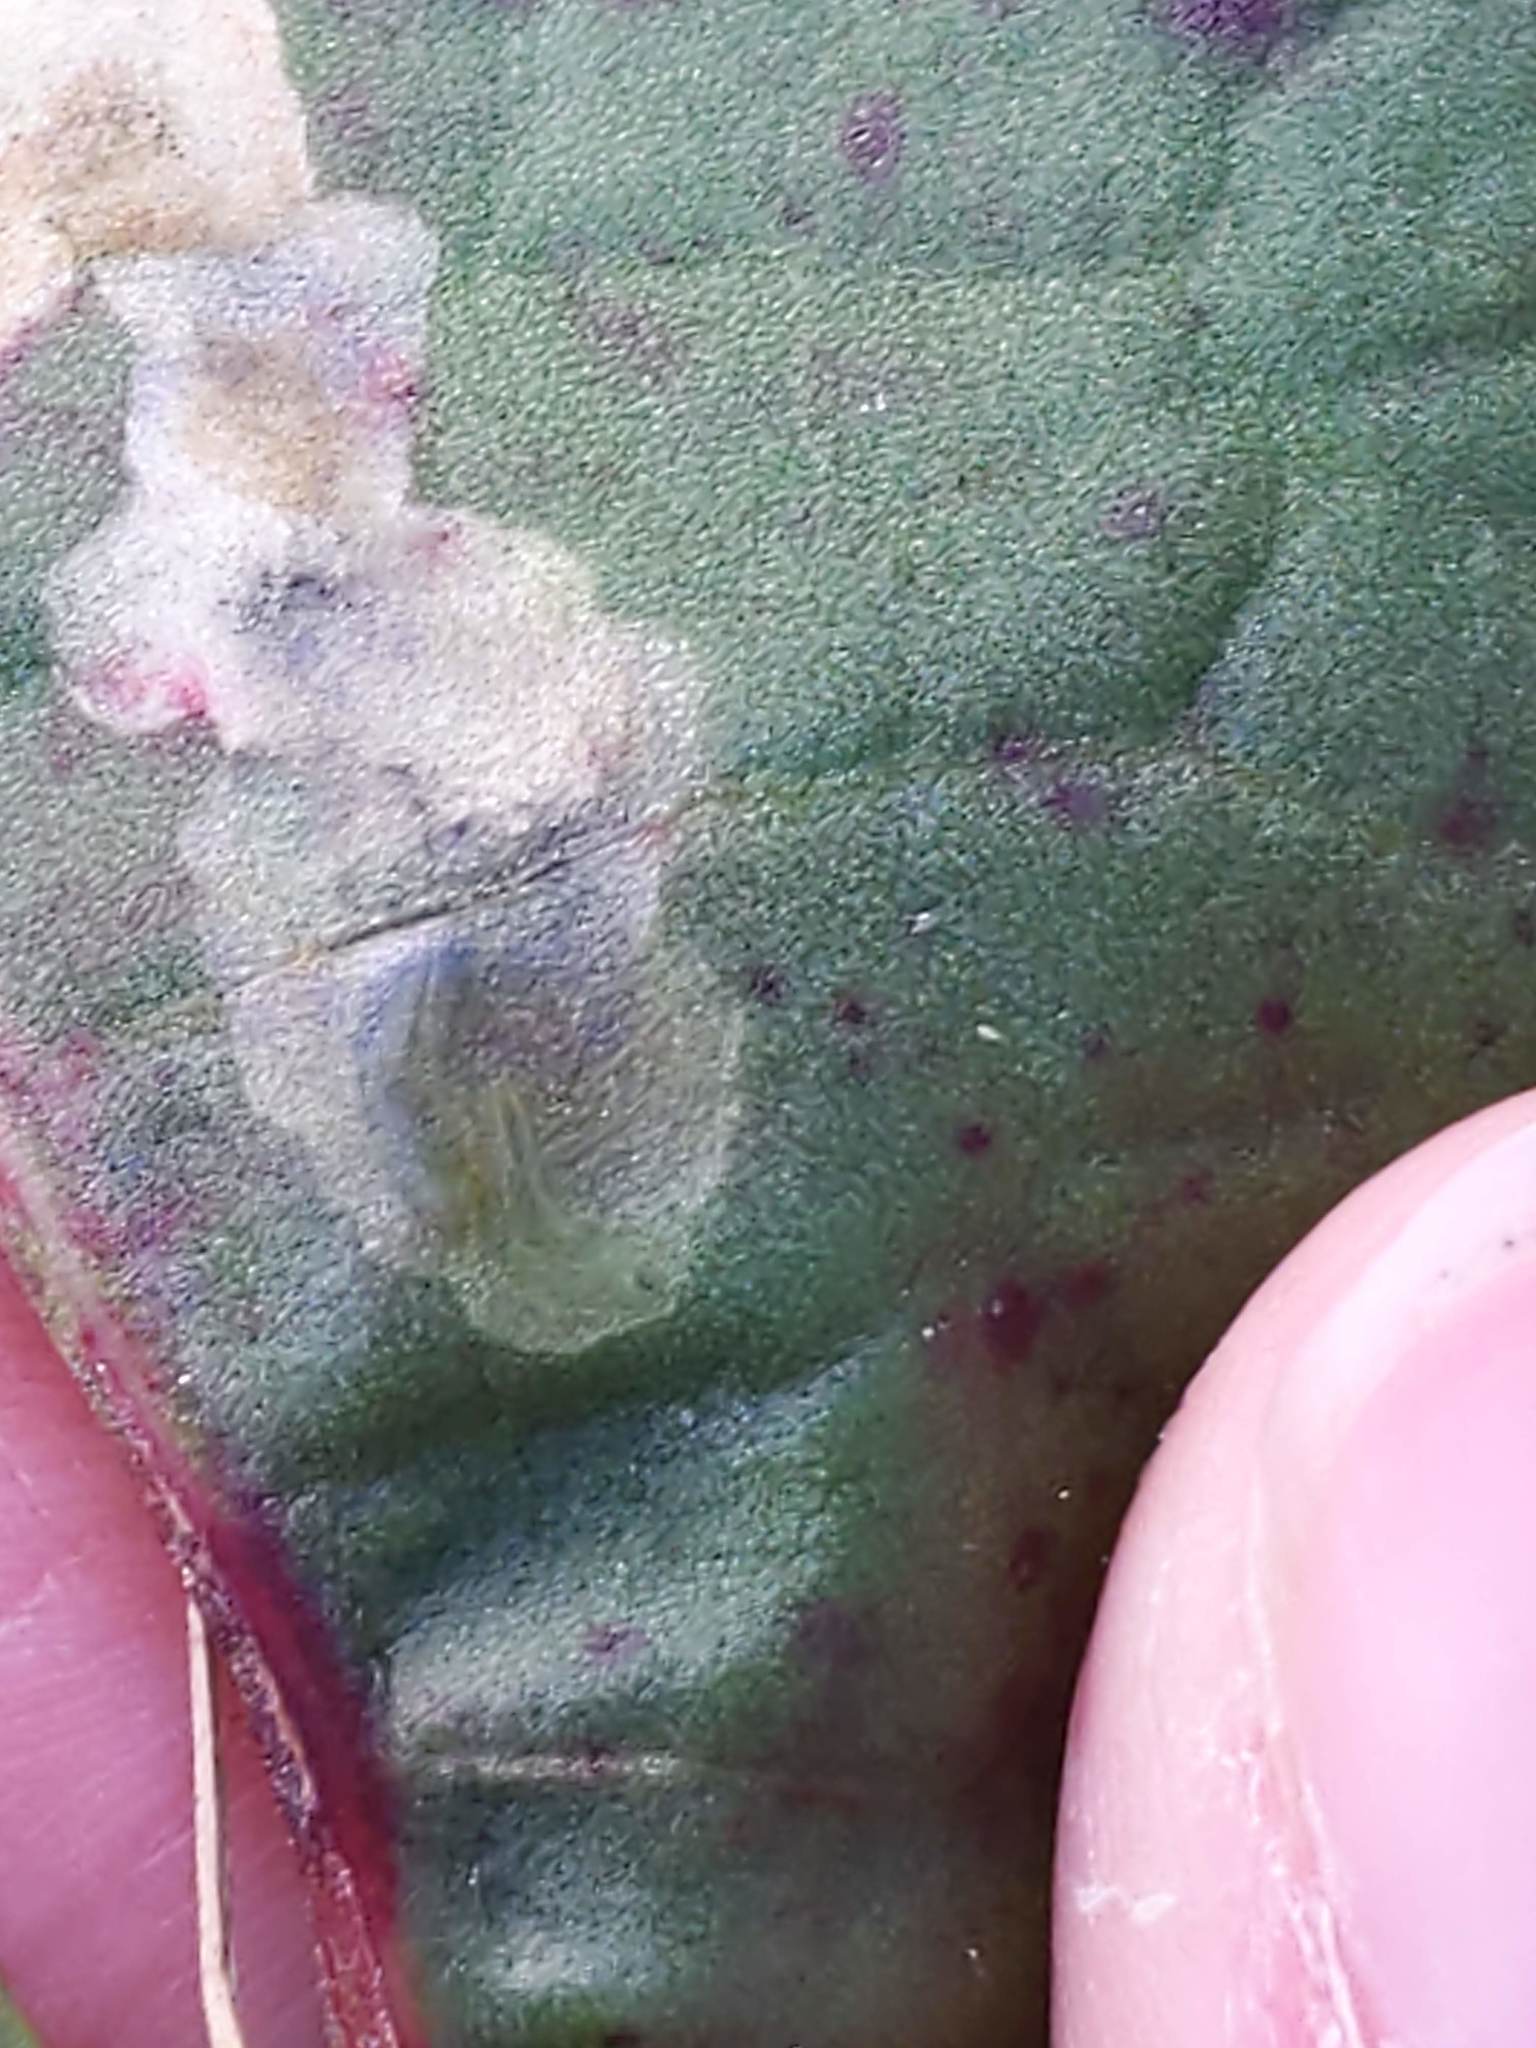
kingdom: Animalia
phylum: Arthropoda
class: Insecta
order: Diptera
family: Anthomyiidae
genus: Pegomya
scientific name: Pegomya bicolor
